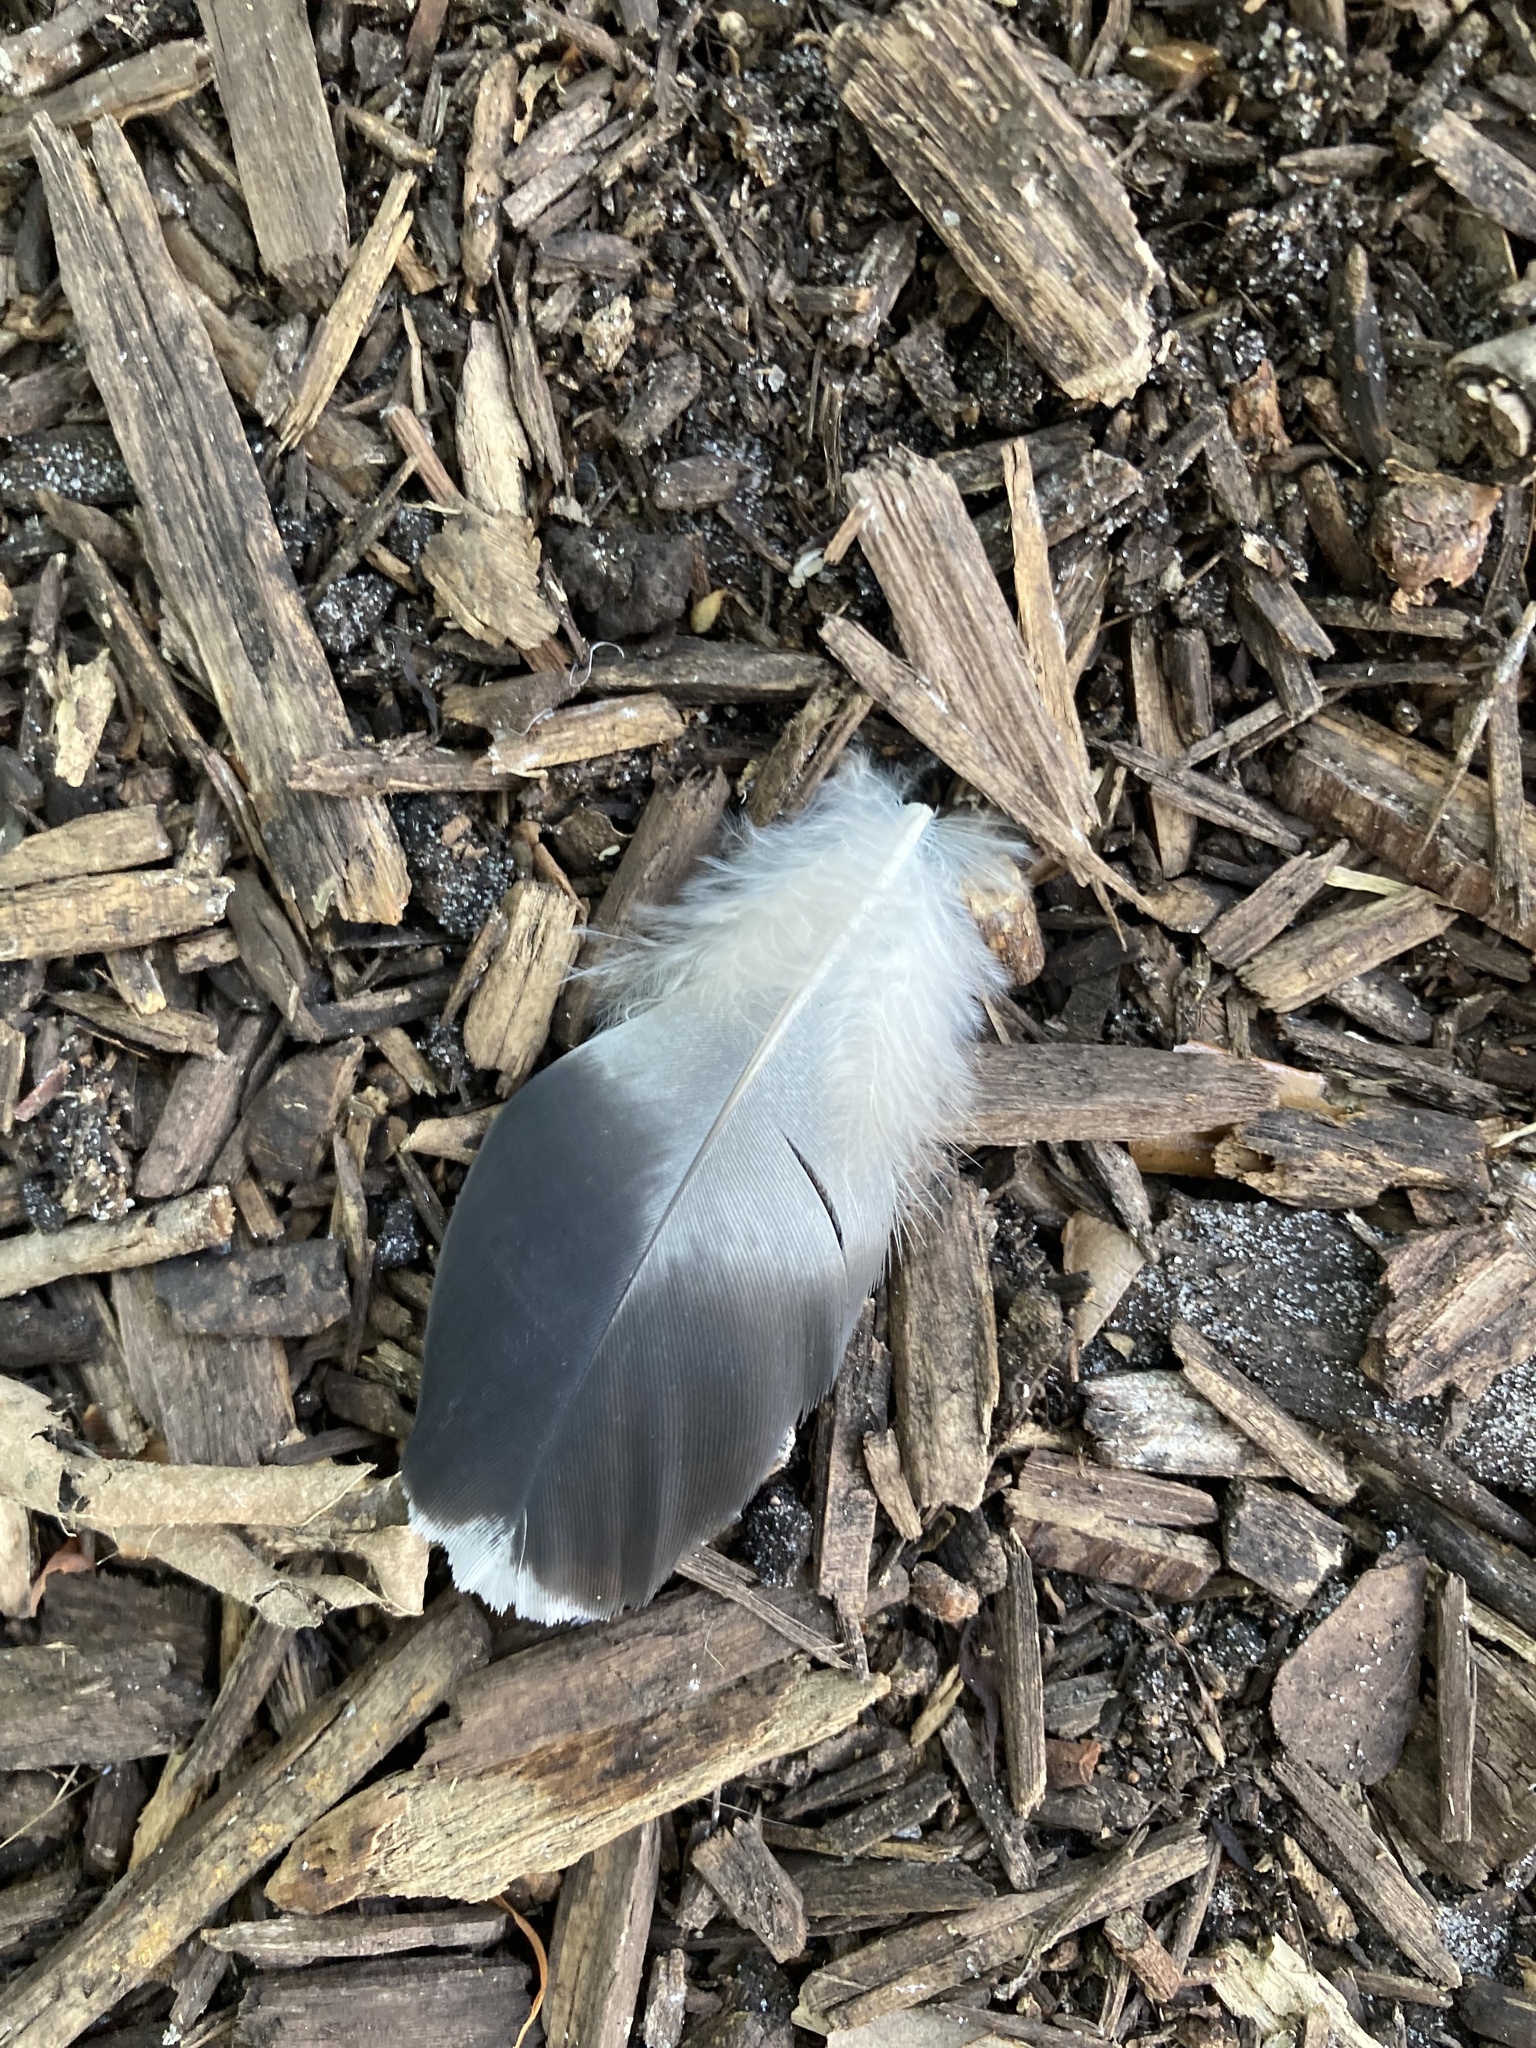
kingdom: Animalia
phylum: Chordata
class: Aves
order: Columbiformes
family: Columbidae
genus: Columba
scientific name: Columba livia
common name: Rock pigeon
